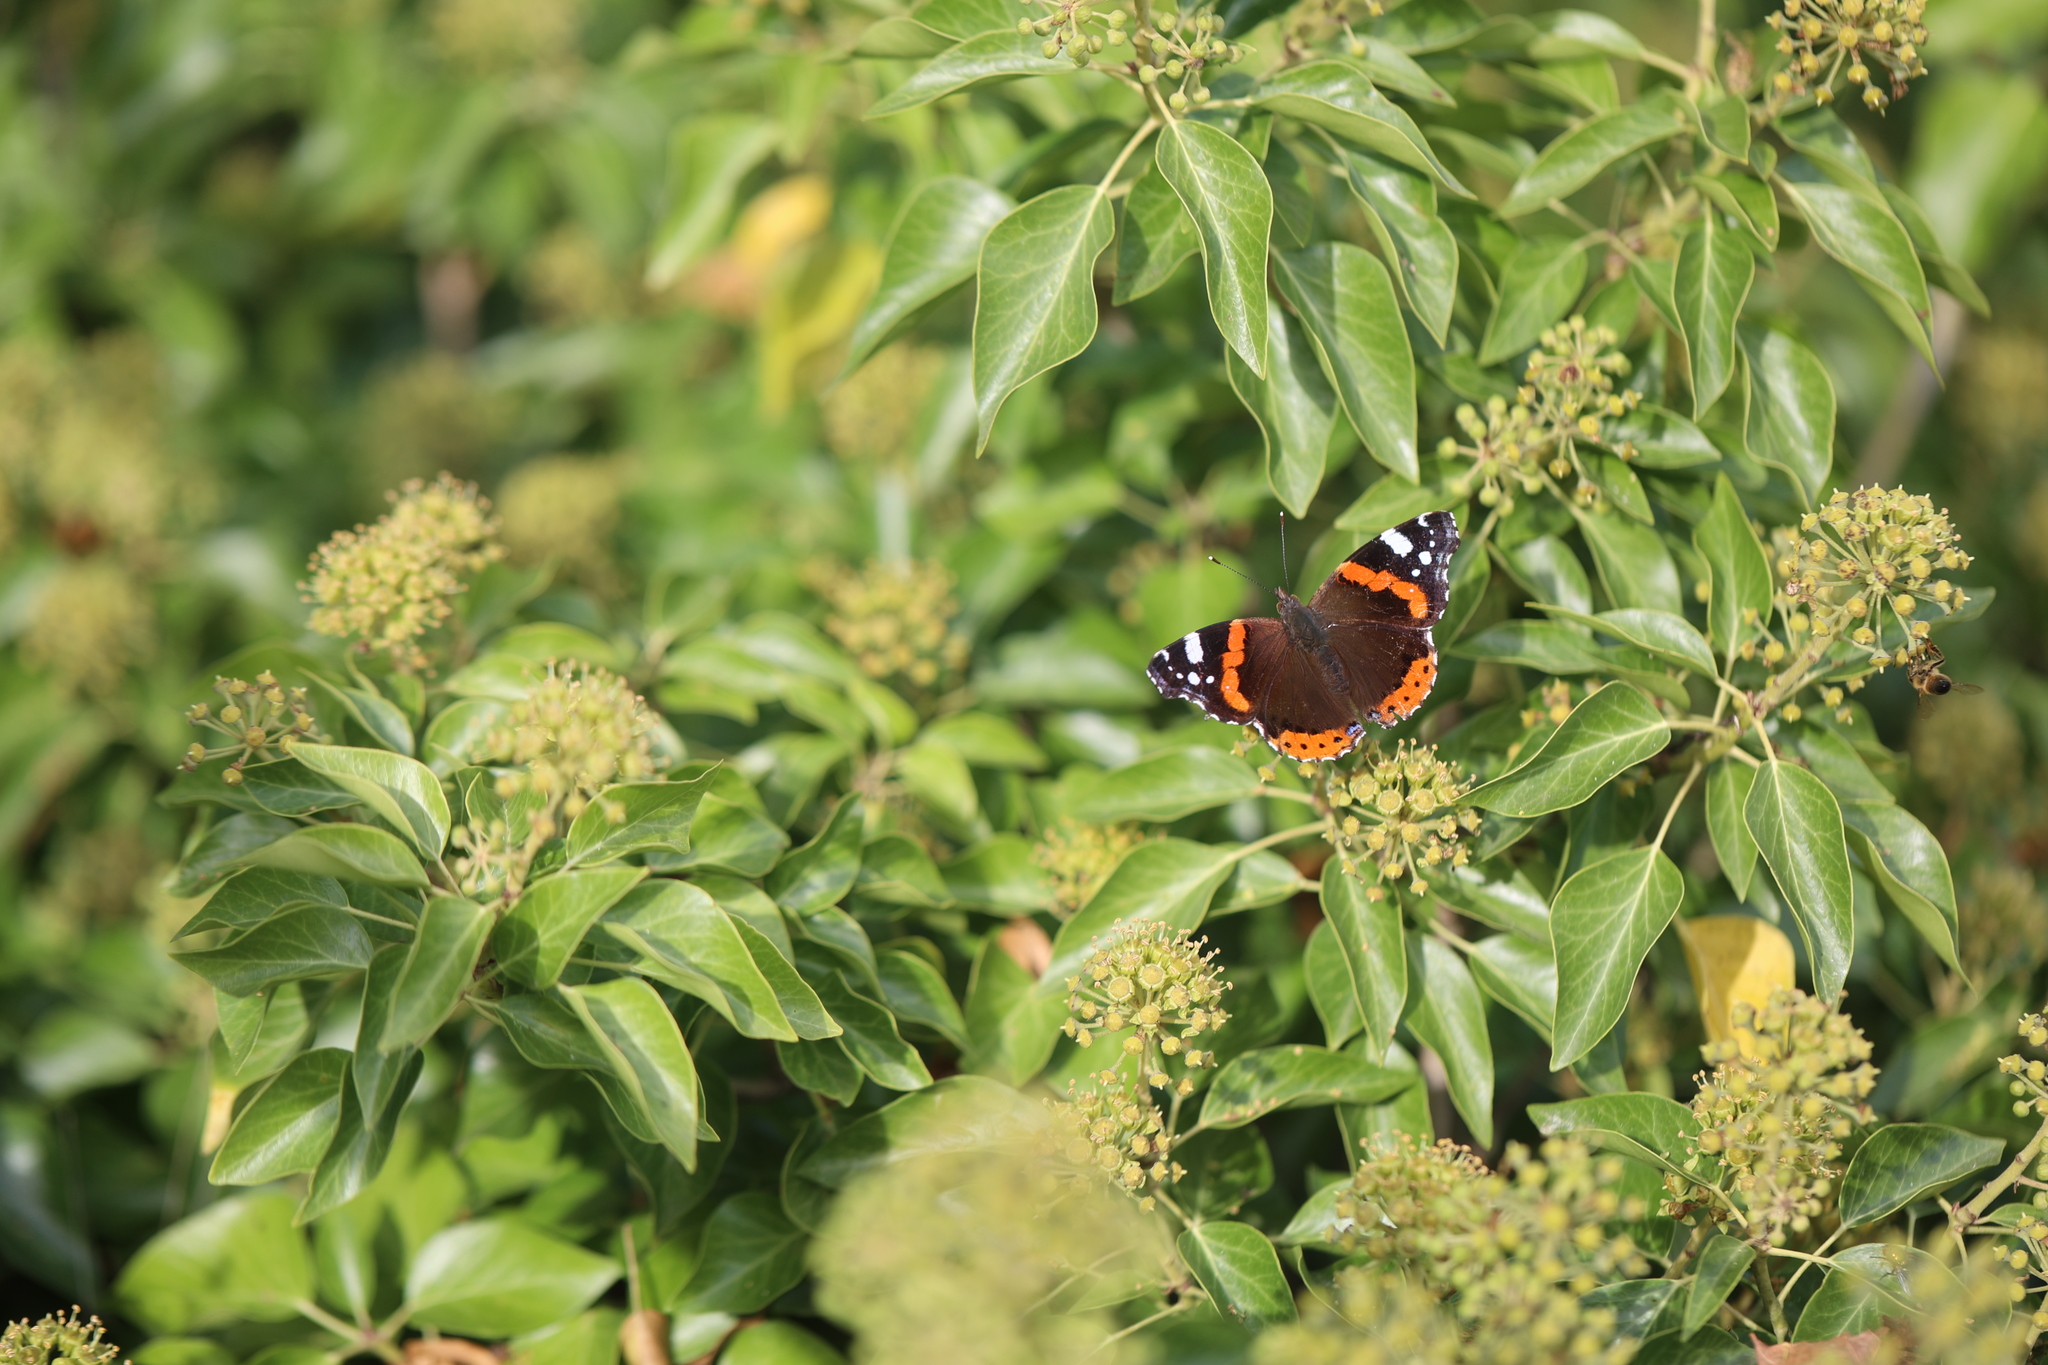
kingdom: Animalia
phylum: Arthropoda
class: Insecta
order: Lepidoptera
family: Nymphalidae
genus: Vanessa
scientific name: Vanessa atalanta
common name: Red admiral
